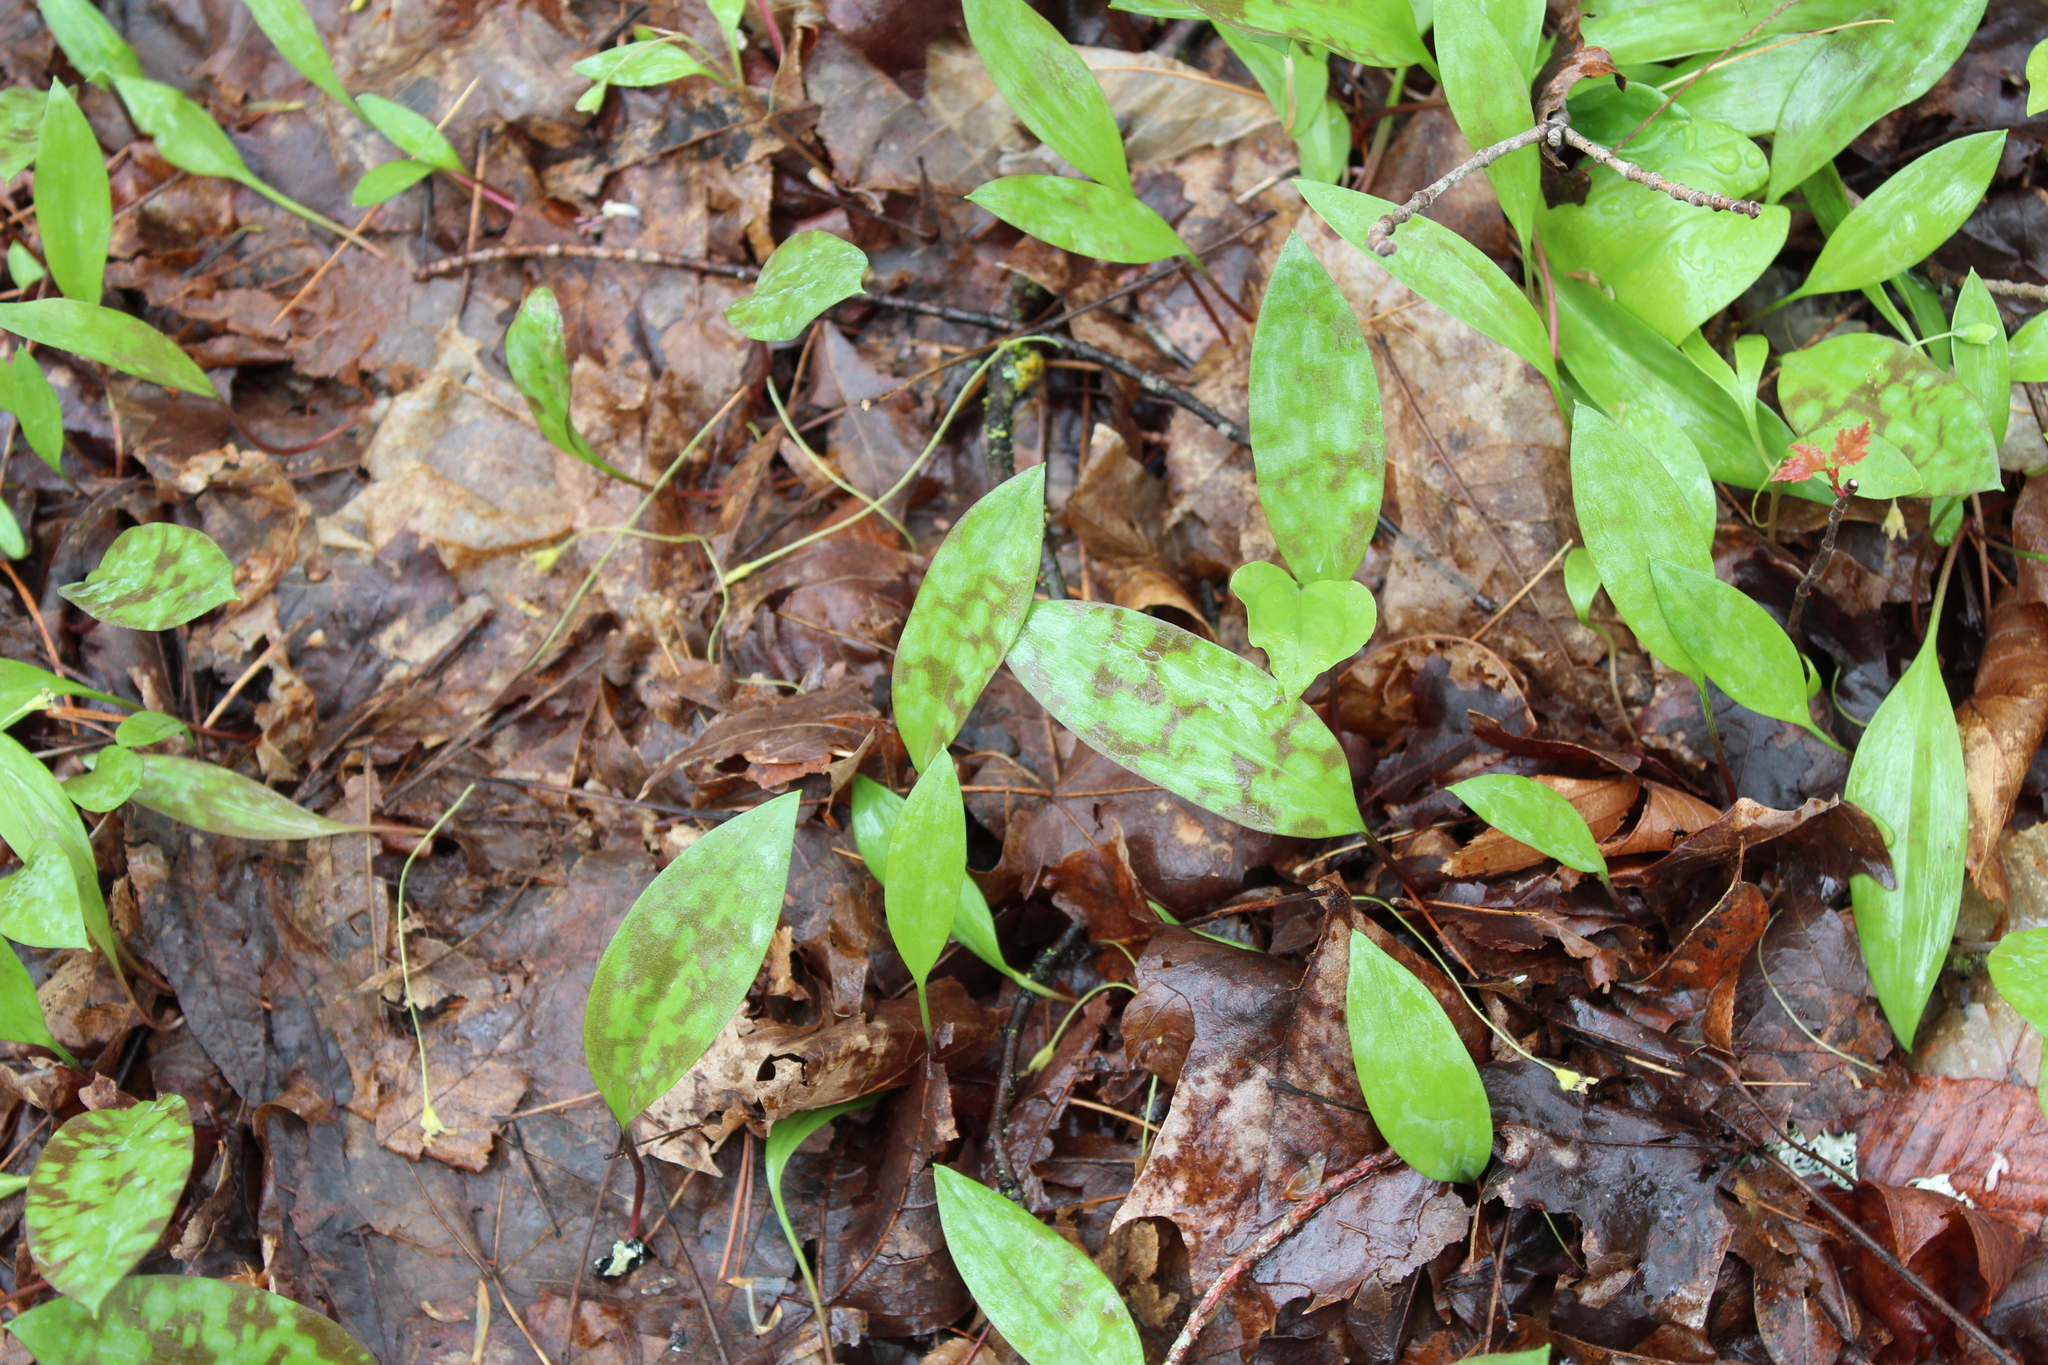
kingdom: Plantae
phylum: Tracheophyta
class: Liliopsida
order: Liliales
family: Liliaceae
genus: Erythronium
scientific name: Erythronium americanum
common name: Yellow adder's-tongue
